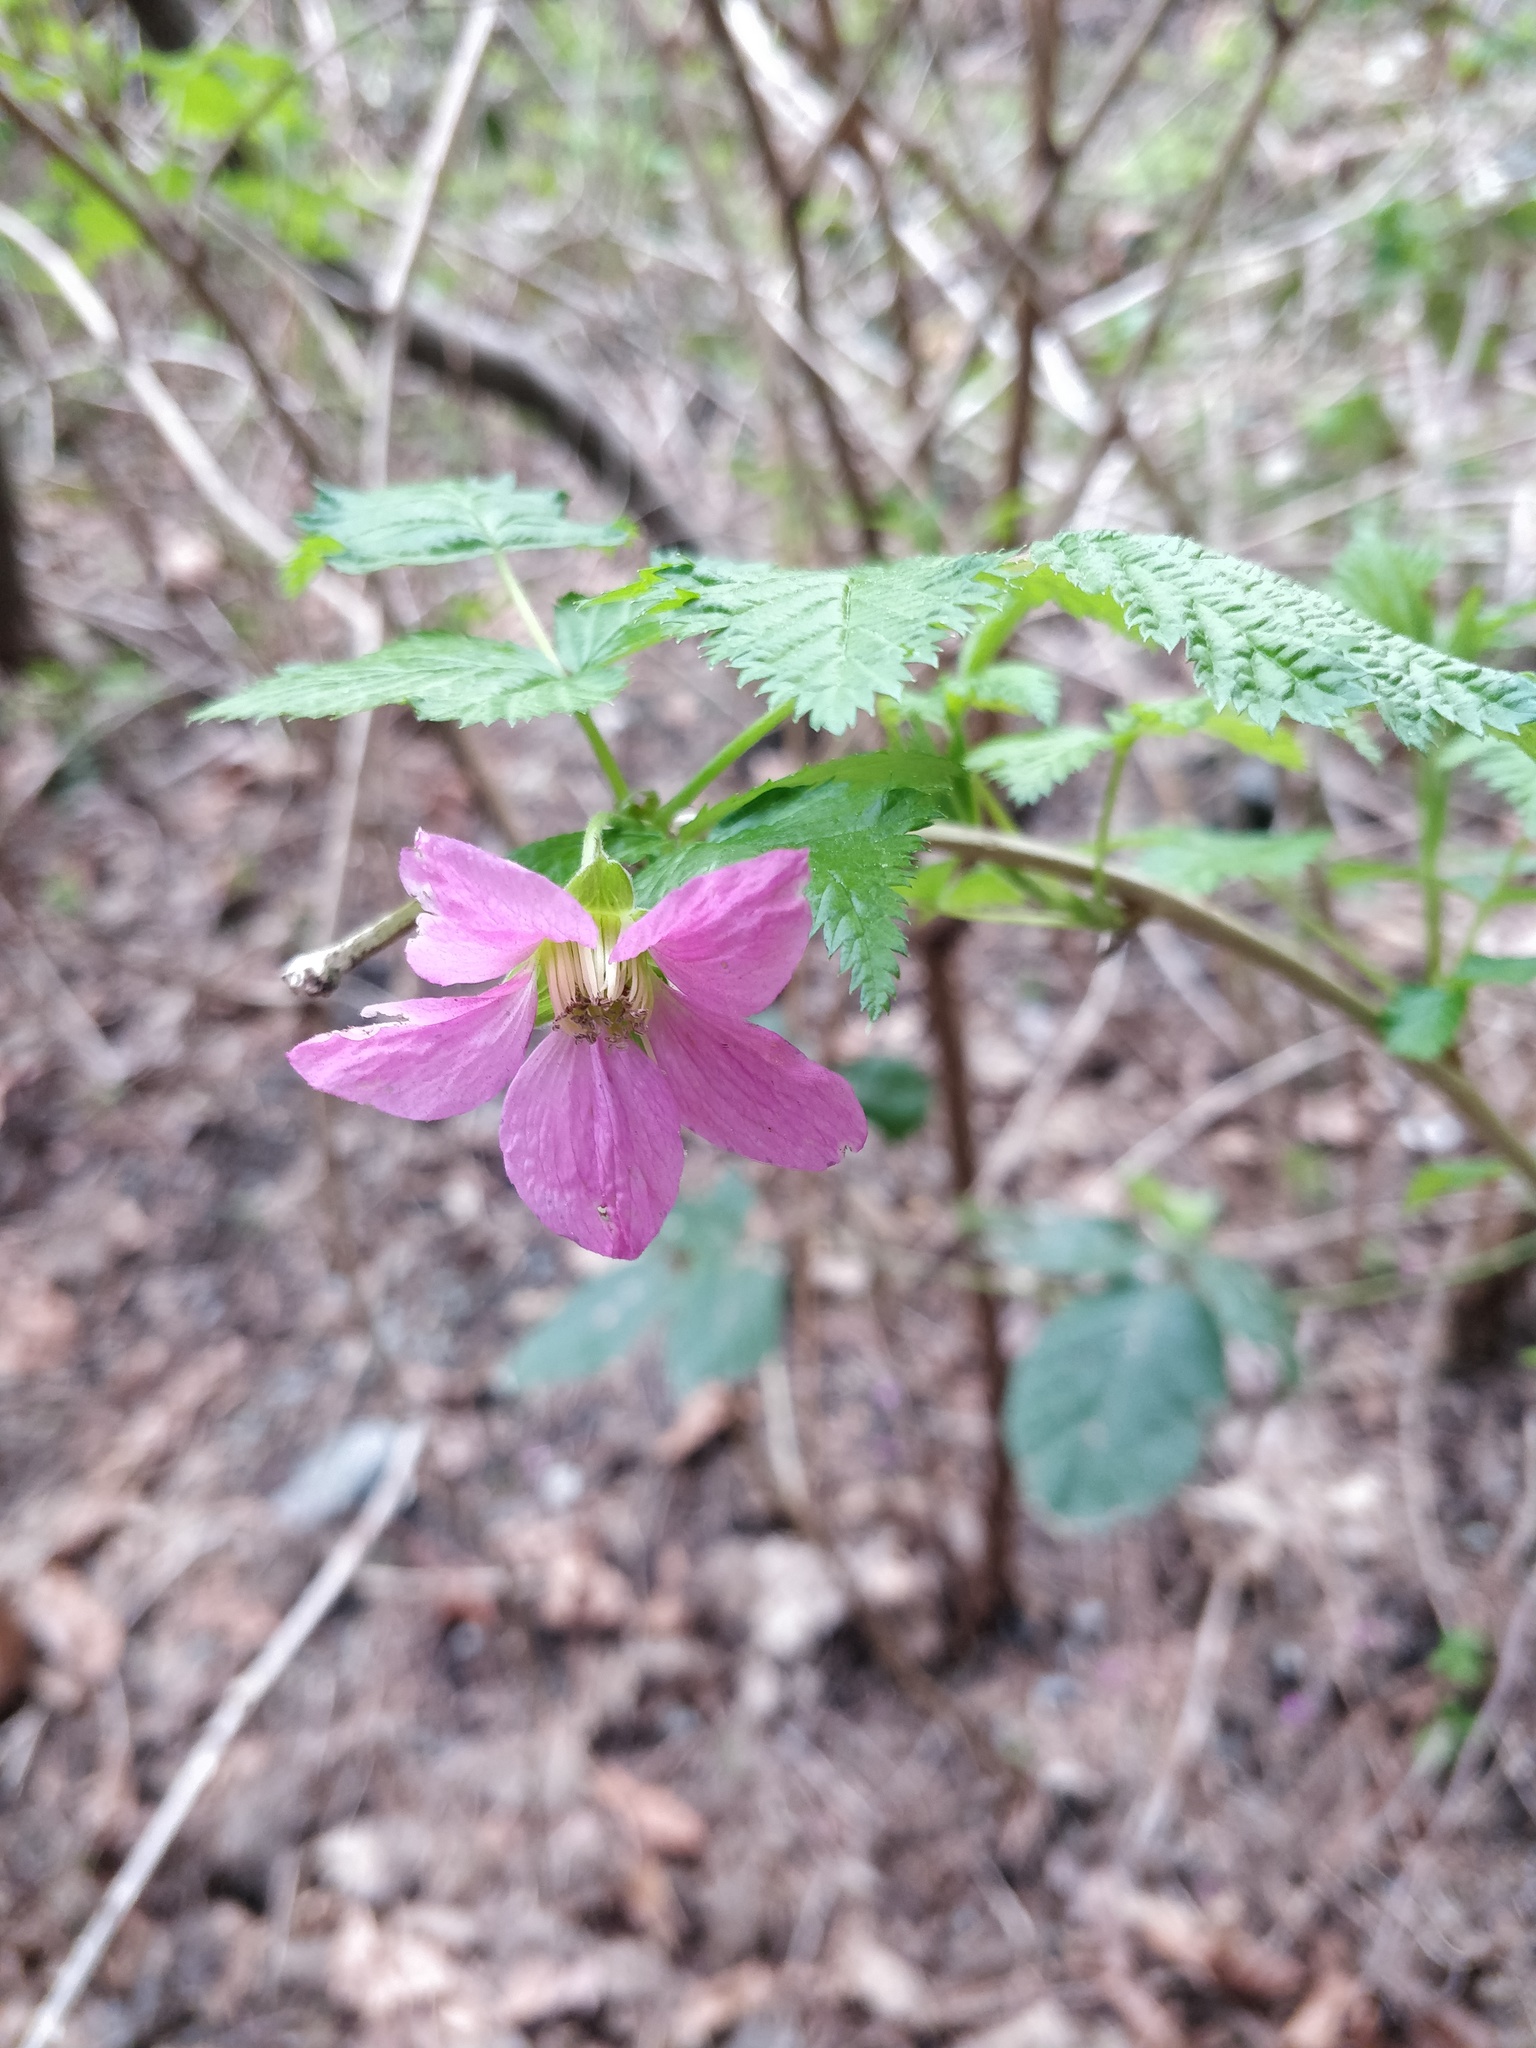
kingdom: Plantae
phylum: Tracheophyta
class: Magnoliopsida
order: Rosales
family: Rosaceae
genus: Rubus
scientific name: Rubus spectabilis
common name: Salmonberry
